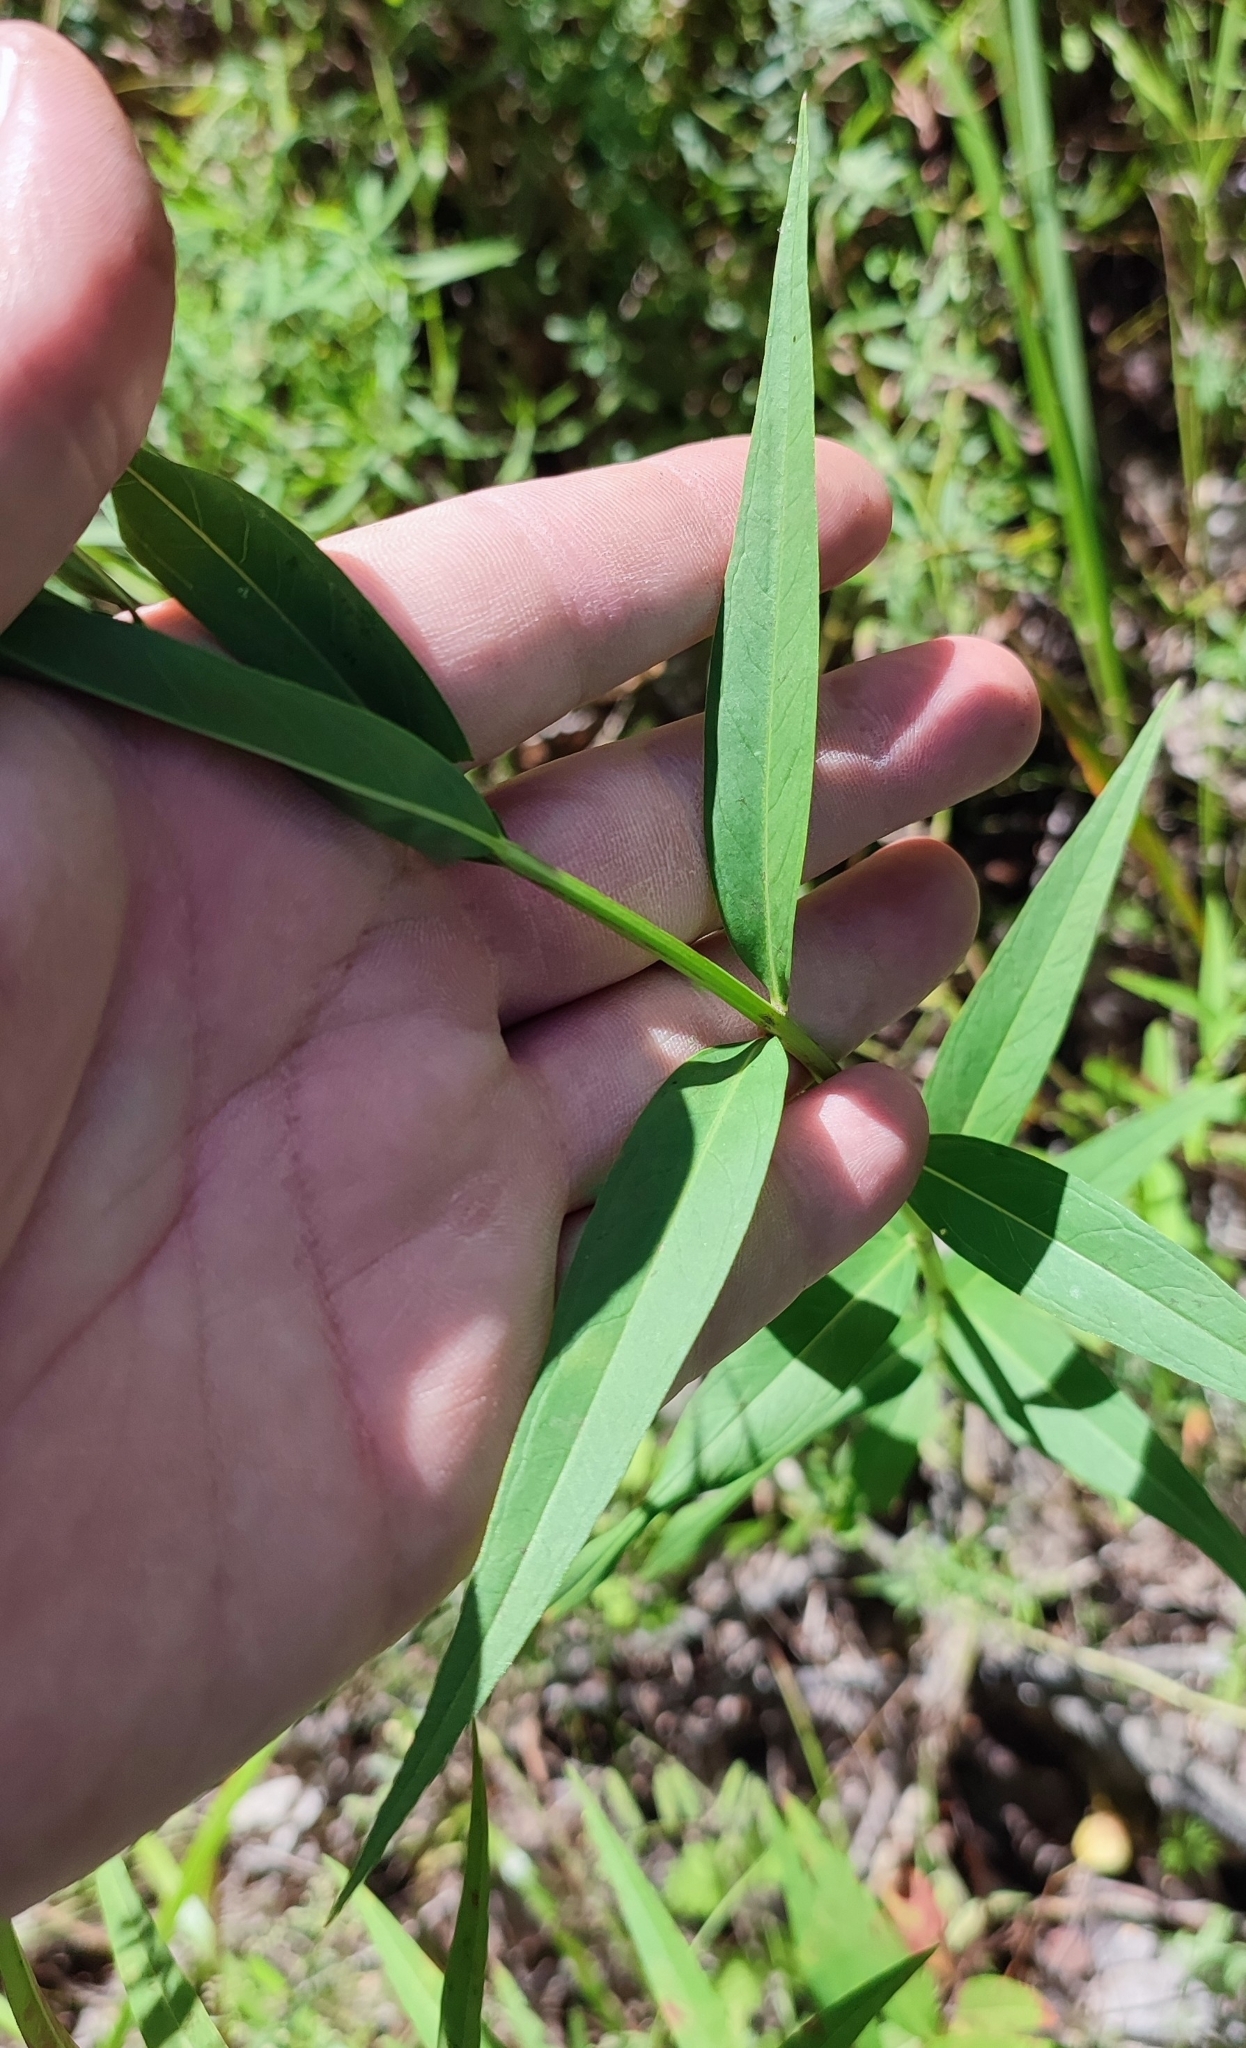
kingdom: Plantae
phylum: Tracheophyta
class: Magnoliopsida
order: Myrtales
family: Lythraceae
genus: Lythrum
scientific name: Lythrum virgatum
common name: European wand loosestrife
